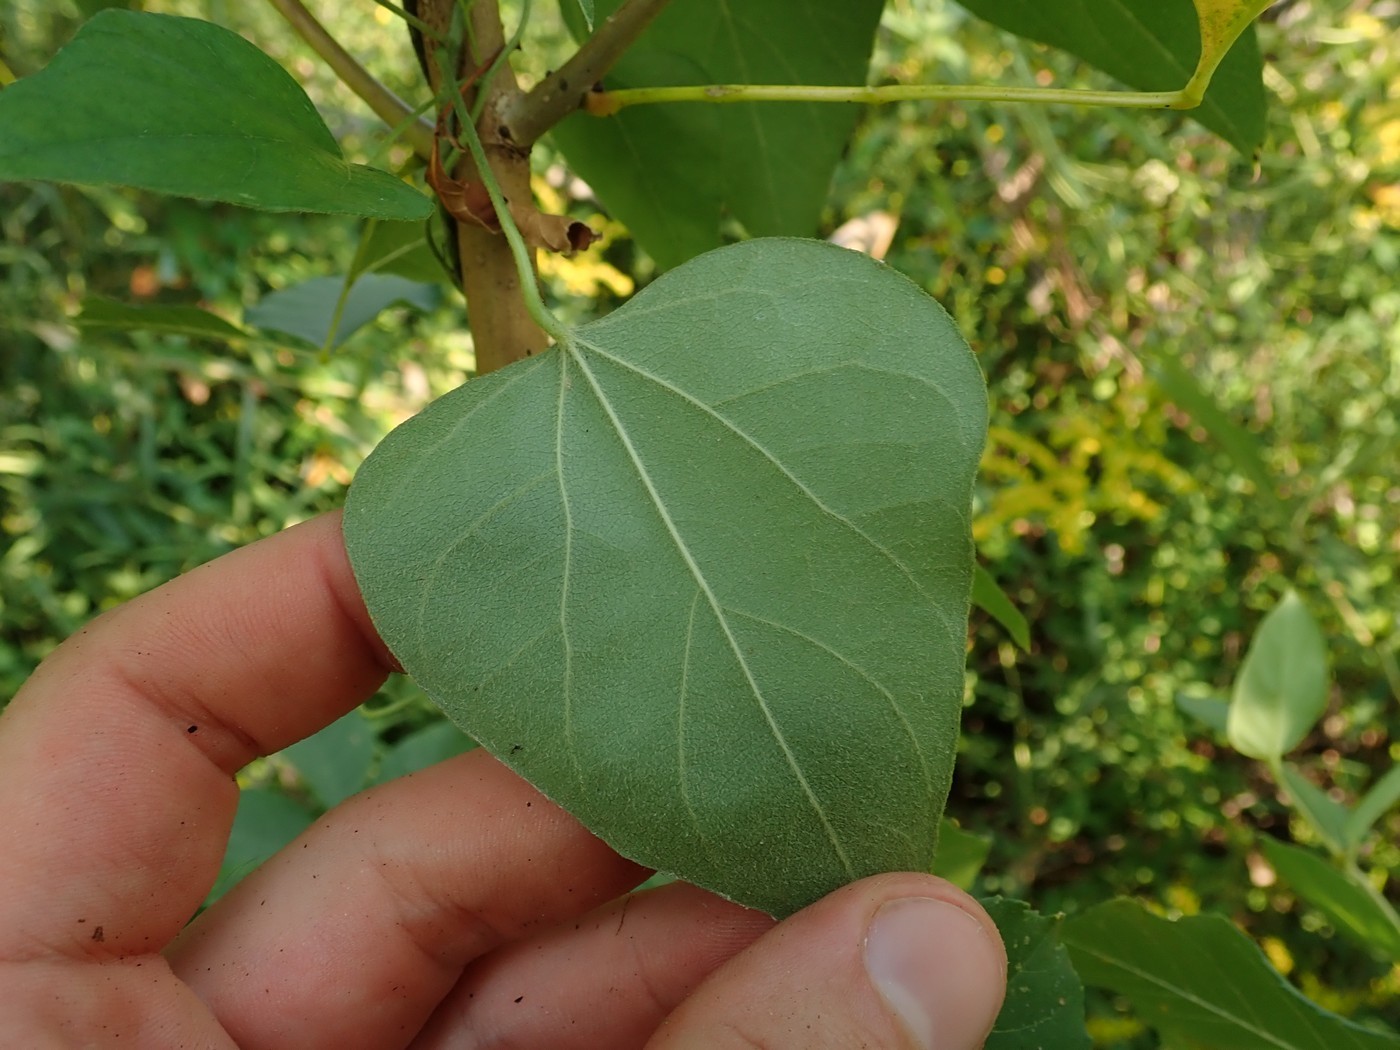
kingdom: Plantae
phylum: Tracheophyta
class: Magnoliopsida
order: Ranunculales
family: Menispermaceae
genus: Cocculus
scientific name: Cocculus carolinus
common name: Carolina moonseed
